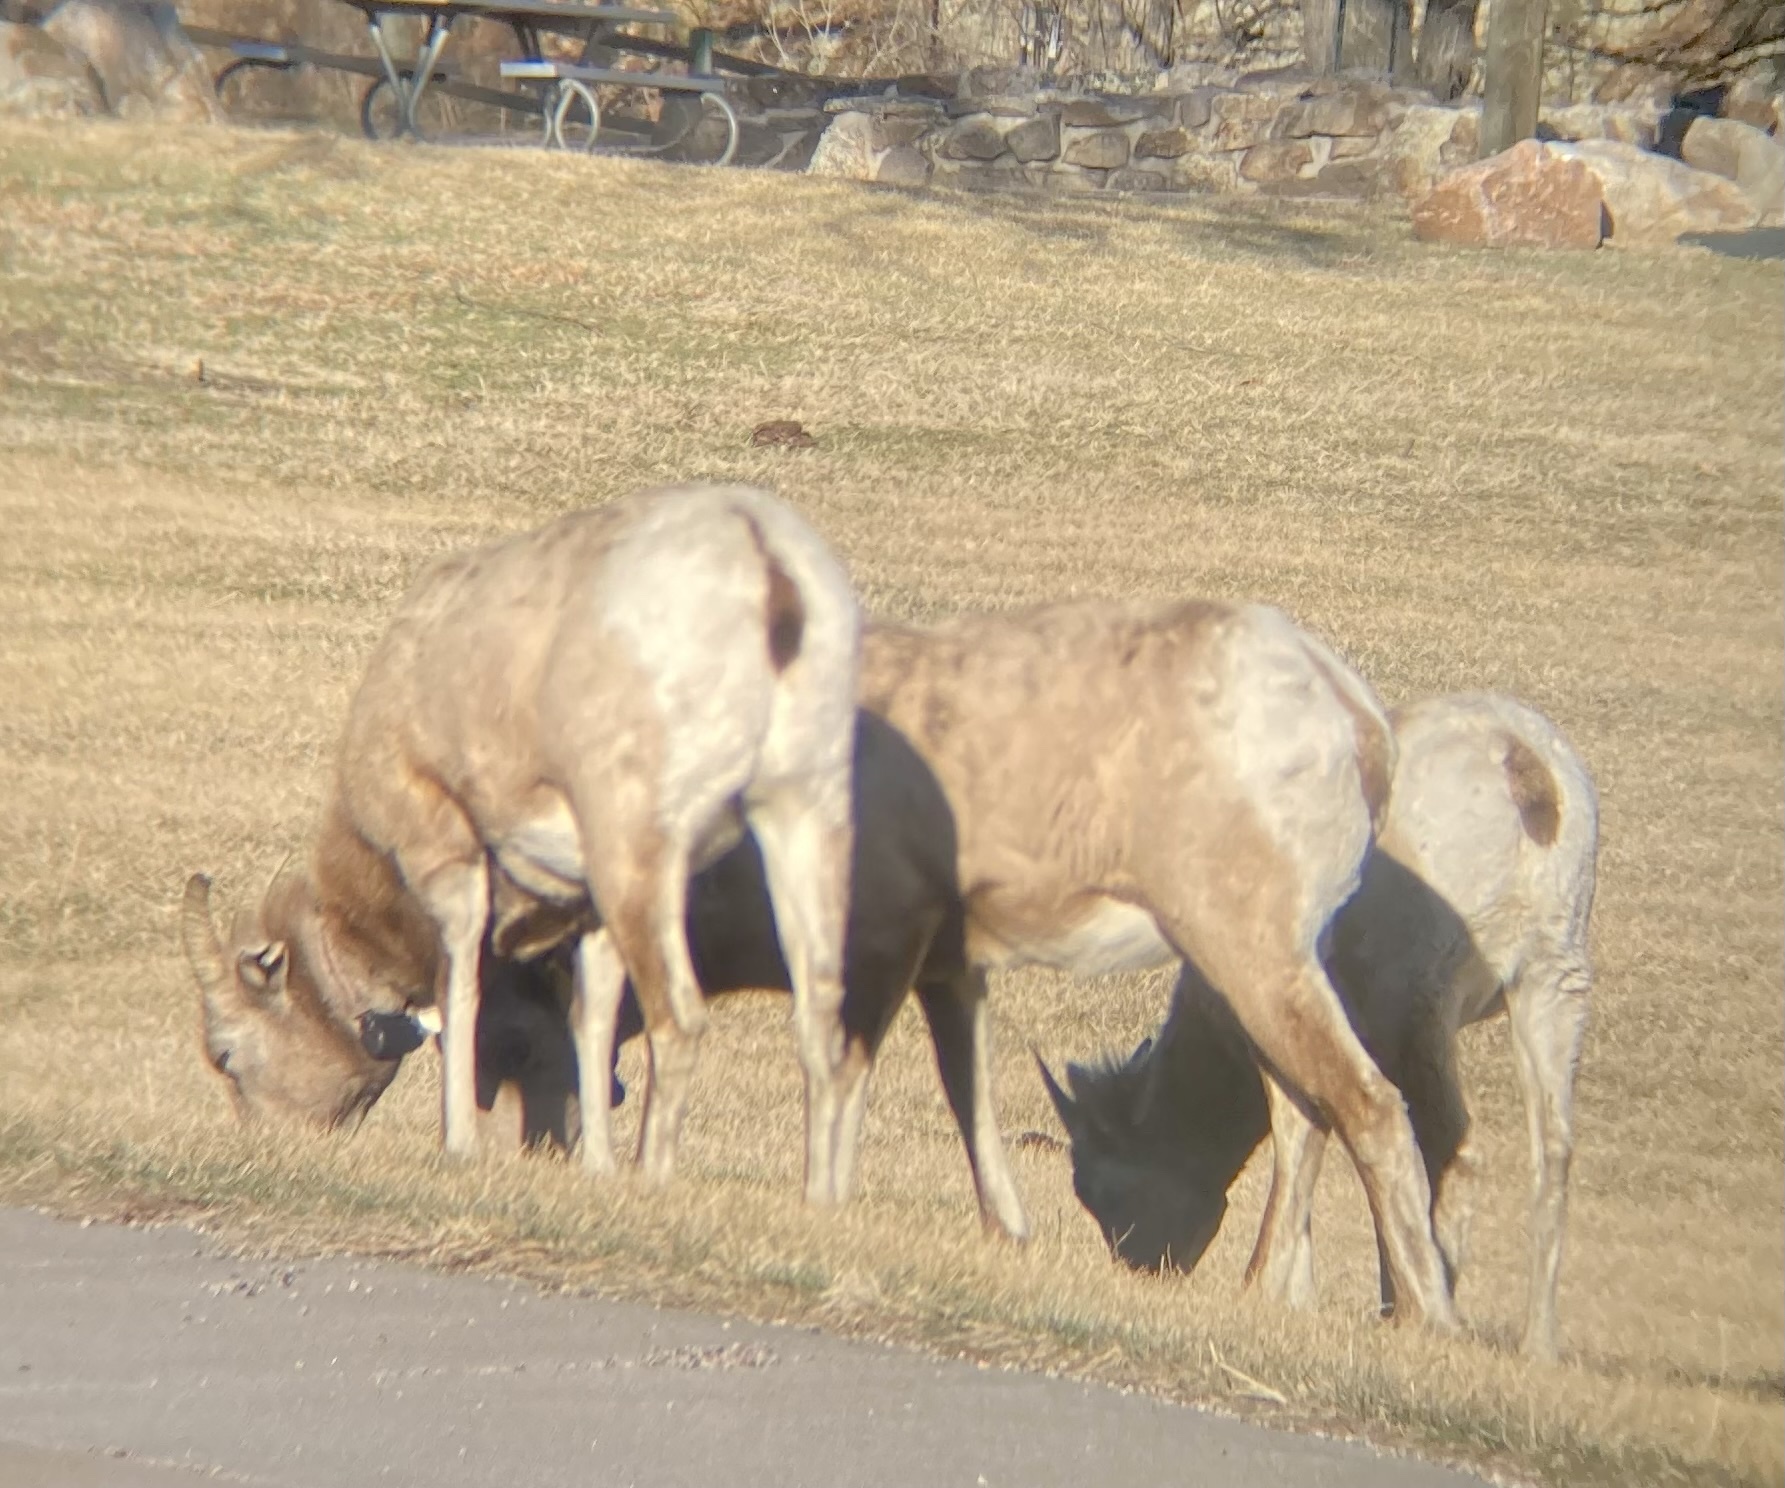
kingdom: Animalia
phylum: Chordata
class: Mammalia
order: Artiodactyla
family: Bovidae
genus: Ovis
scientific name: Ovis canadensis
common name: Bighorn sheep
